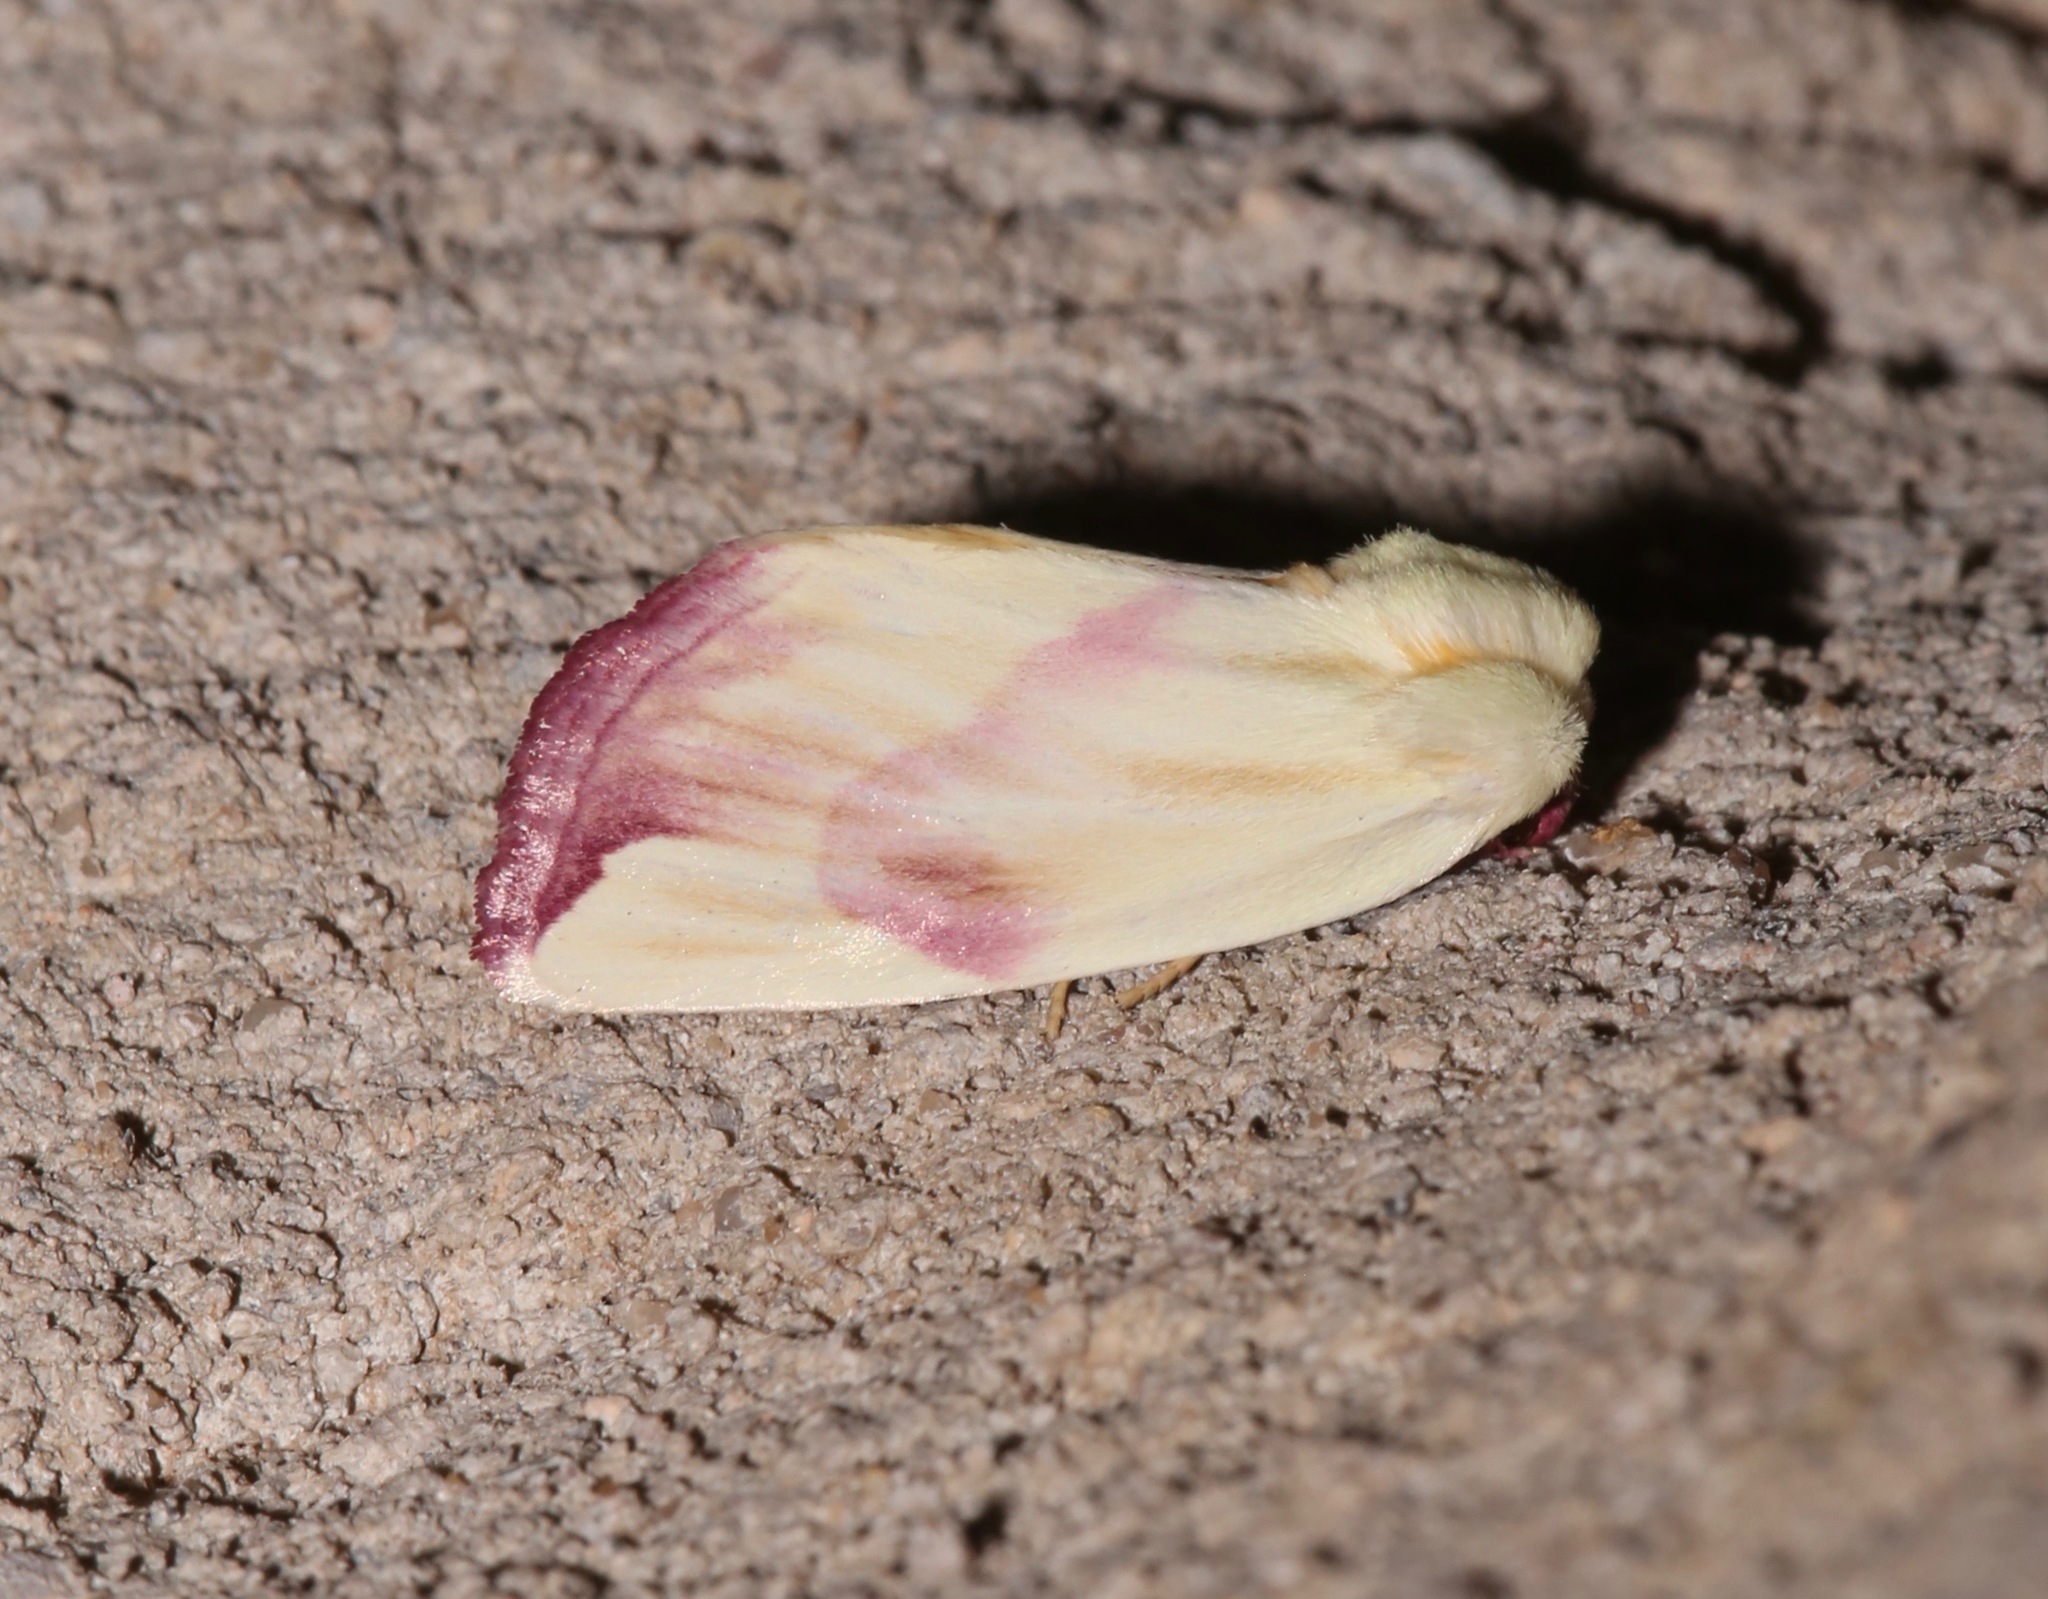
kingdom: Animalia
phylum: Arthropoda
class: Insecta
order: Lepidoptera
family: Noctuidae
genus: Thurberiphaga
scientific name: Thurberiphaga diffusa
